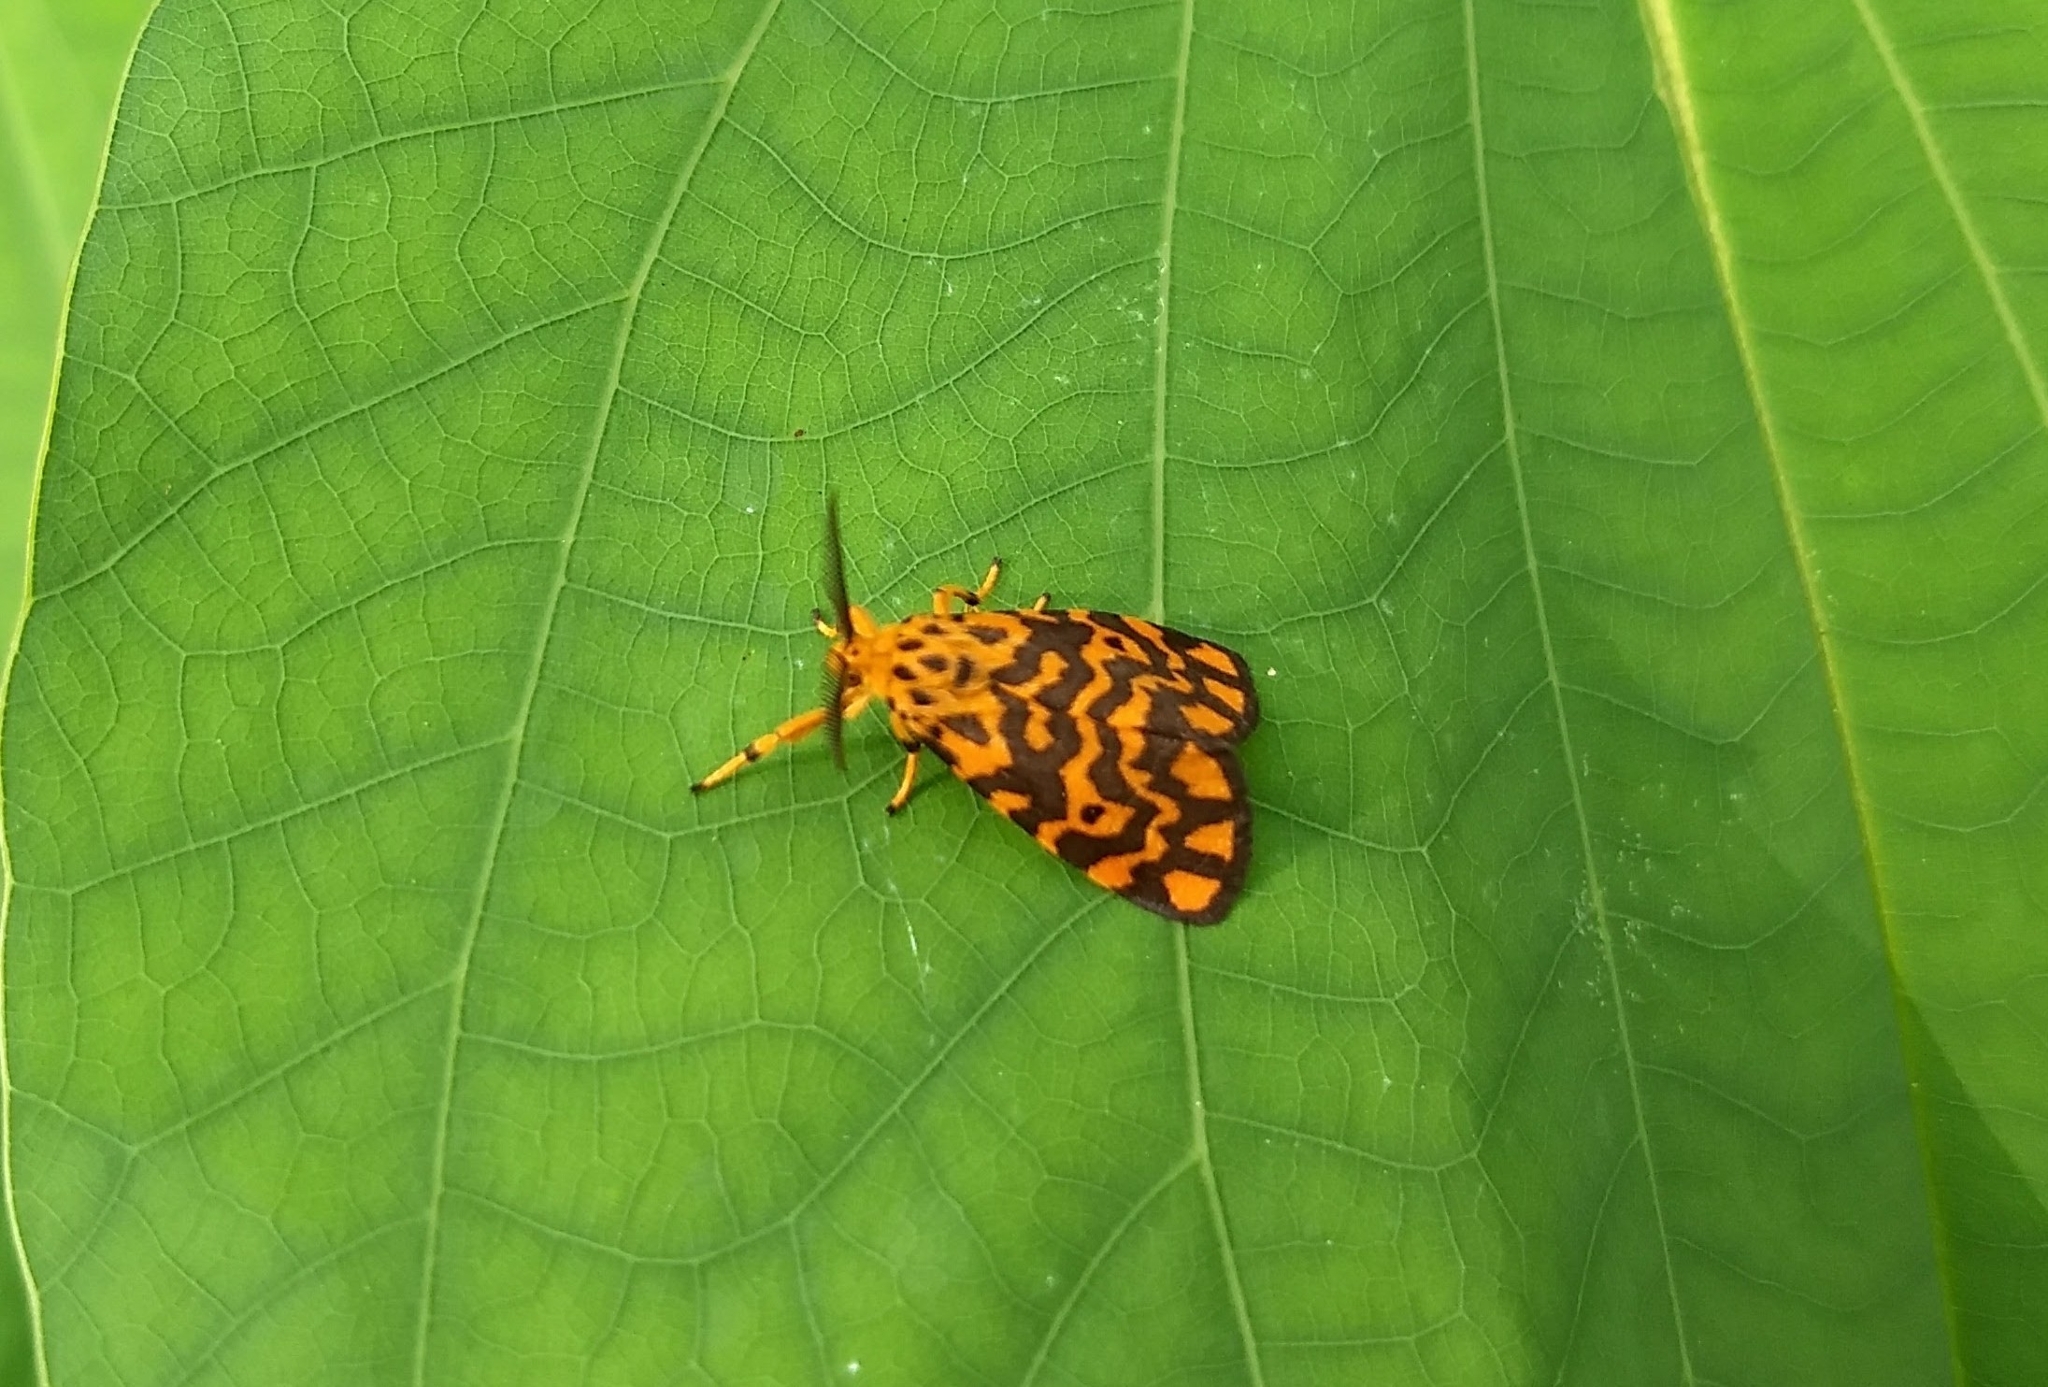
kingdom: Animalia
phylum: Arthropoda
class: Insecta
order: Lepidoptera
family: Erebidae
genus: Nepita
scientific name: Nepita conferta
